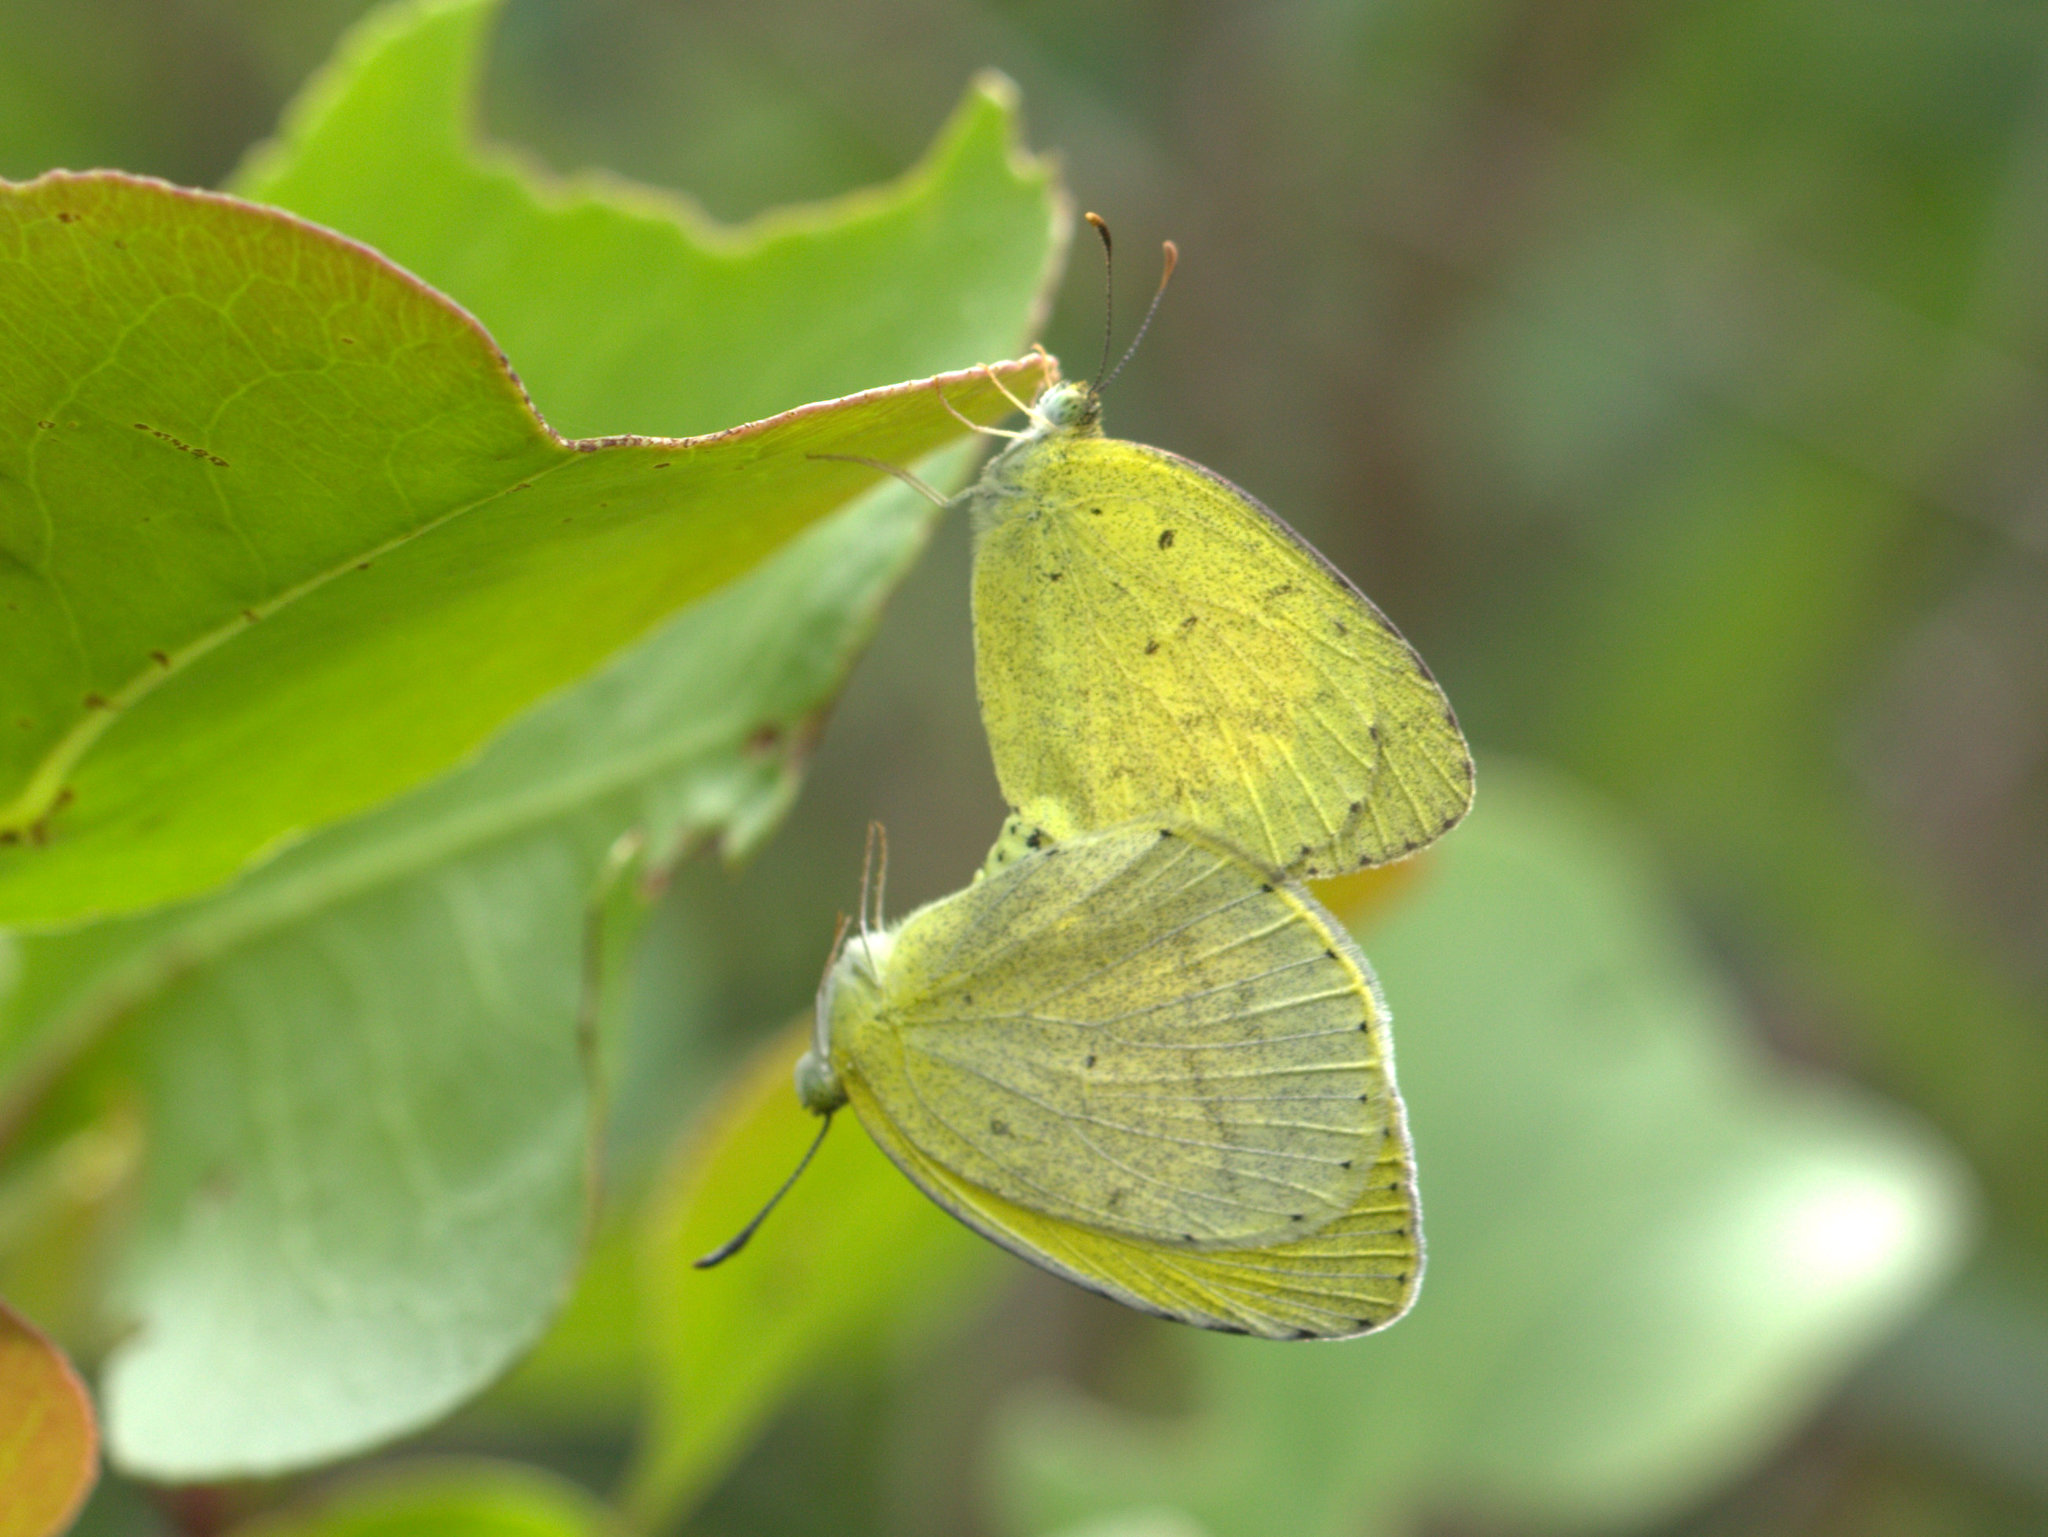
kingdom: Animalia
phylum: Arthropoda
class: Insecta
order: Lepidoptera
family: Pieridae
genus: Eurema
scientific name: Eurema brigitta
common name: Small grass yellow
